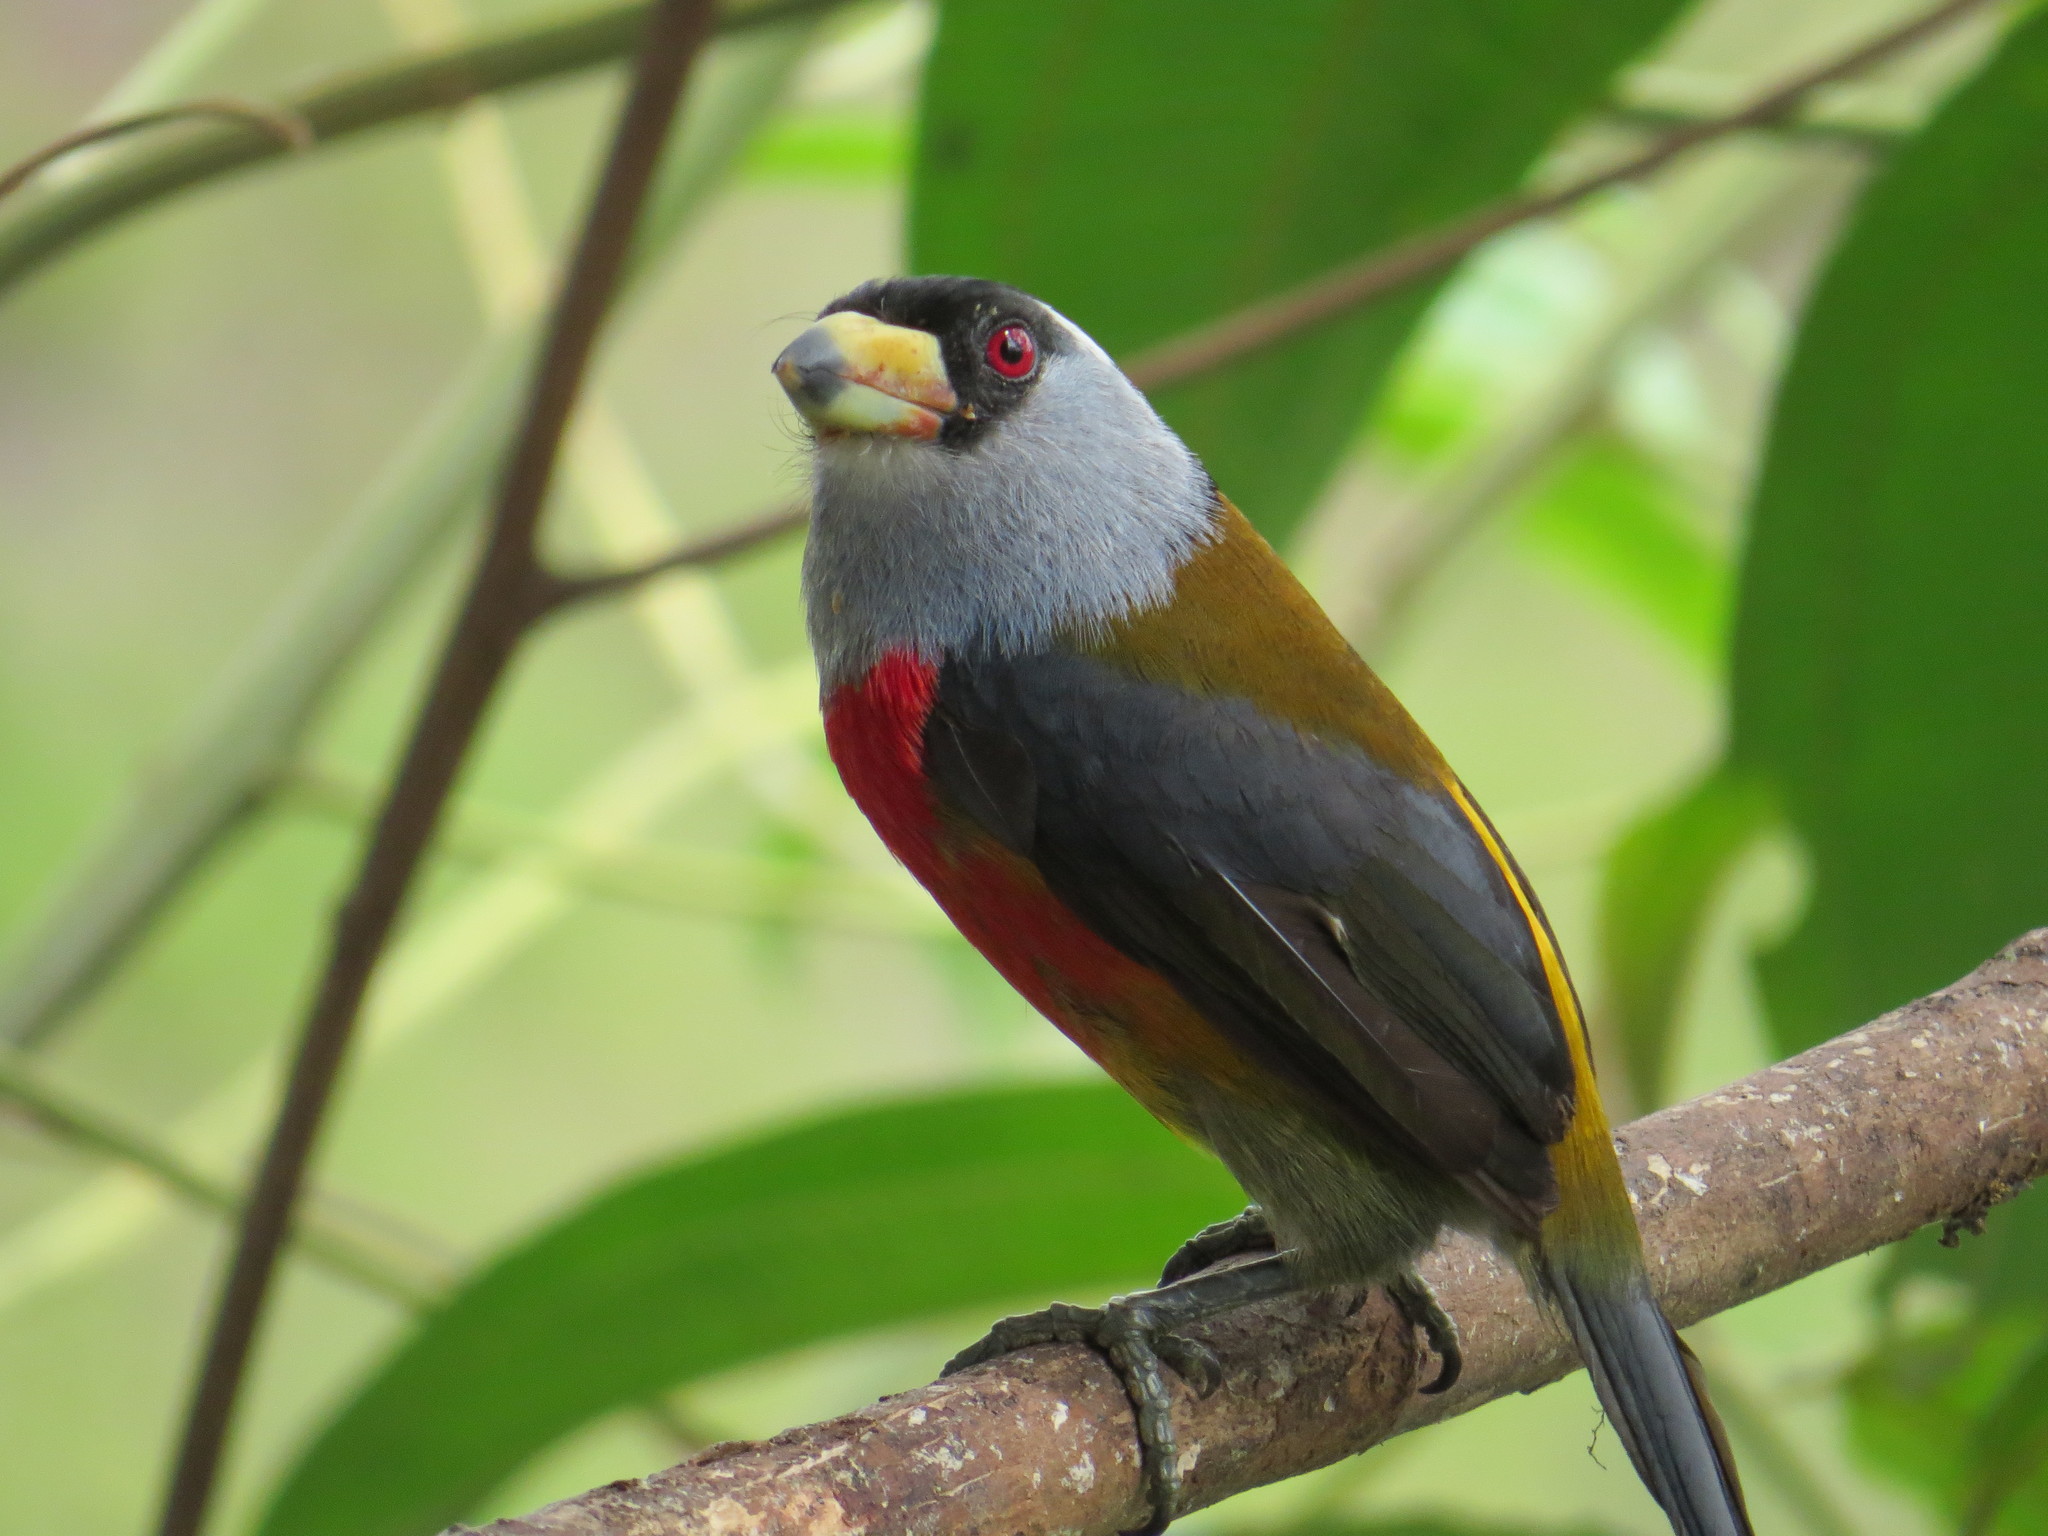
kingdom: Animalia
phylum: Chordata
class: Aves
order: Piciformes
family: Semnornithidae
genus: Semnornis
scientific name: Semnornis ramphastinus
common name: Toucan barbet
